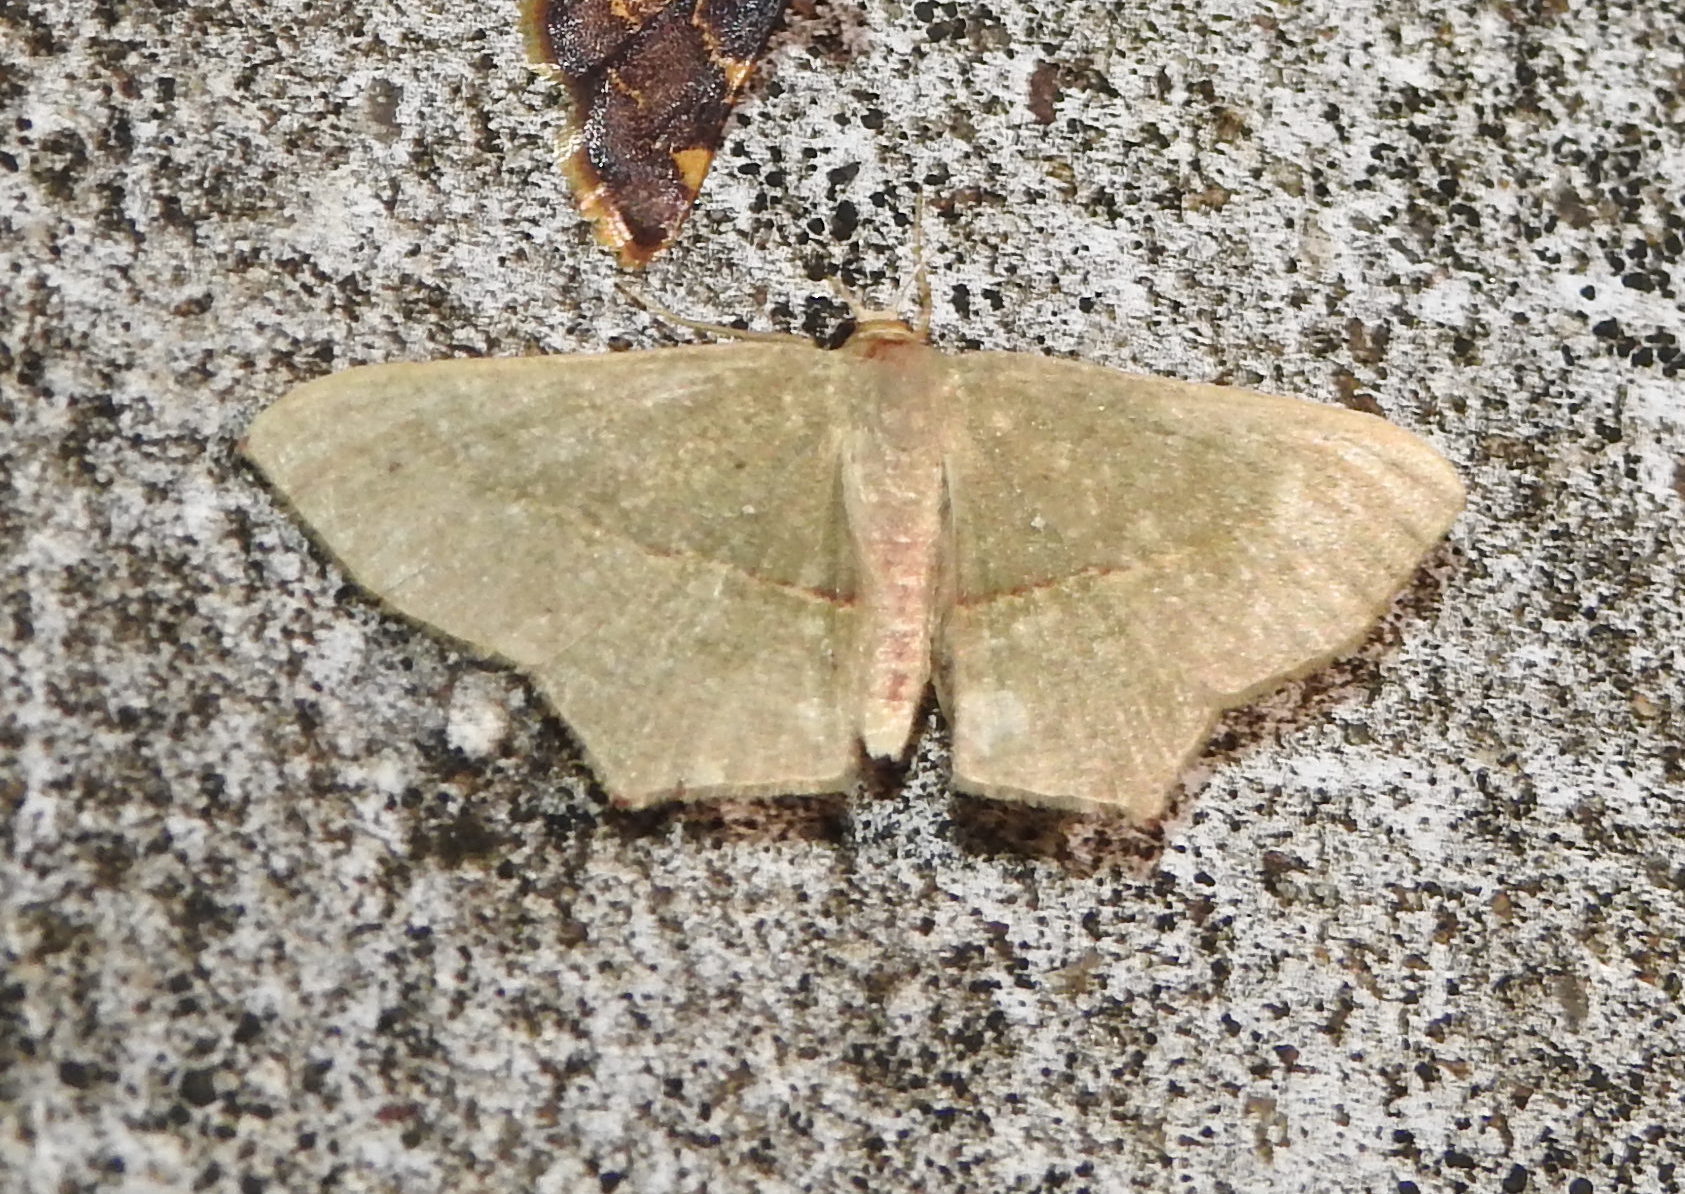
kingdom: Animalia
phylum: Arthropoda
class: Insecta
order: Lepidoptera
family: Geometridae
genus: Traminda
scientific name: Traminda mundissima
